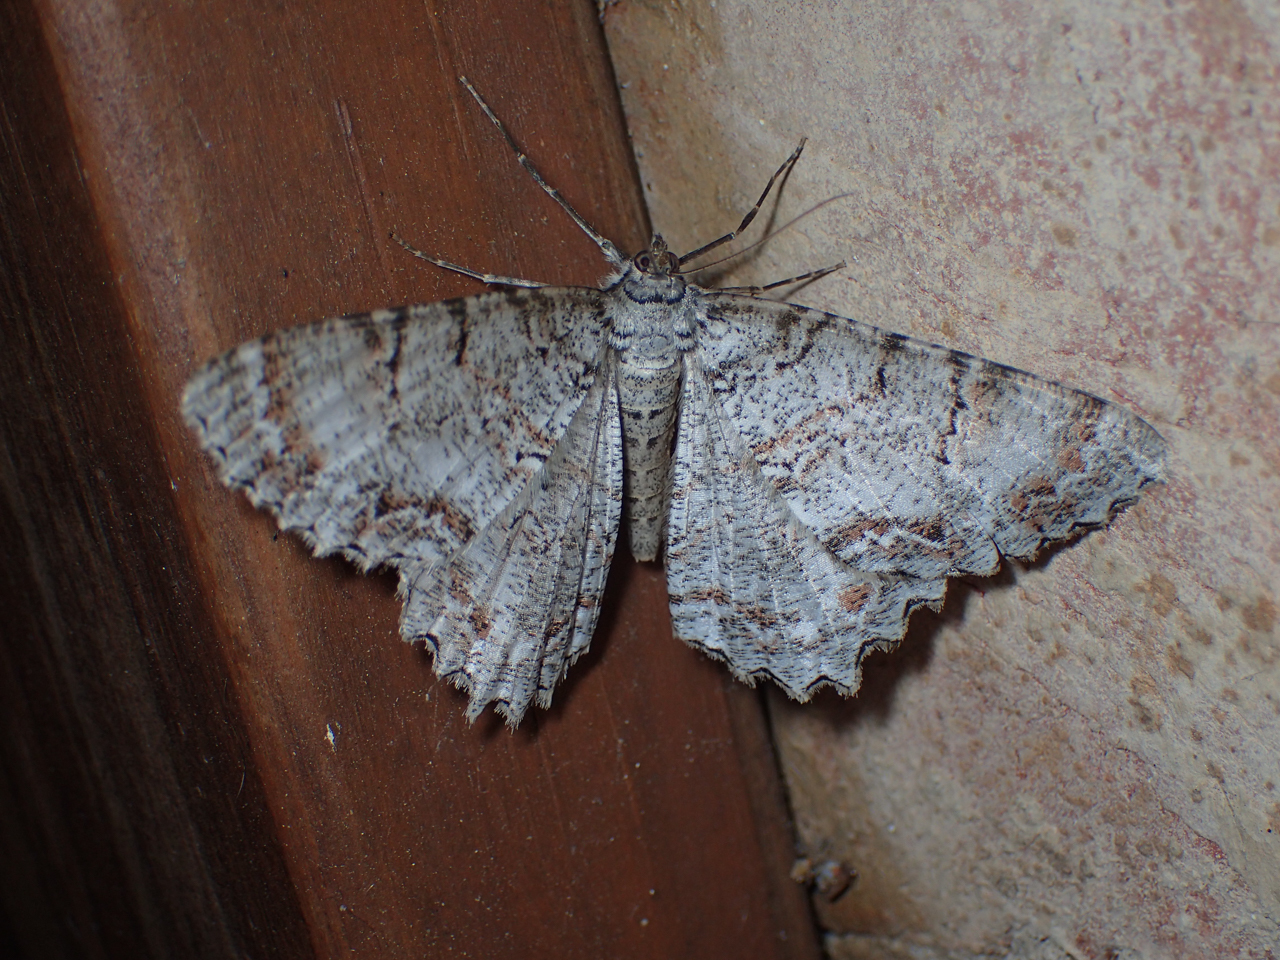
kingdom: Animalia
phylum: Arthropoda
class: Insecta
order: Lepidoptera
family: Geometridae
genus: Epimecis
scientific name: Epimecis hortaria
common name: Tulip-tree beauty
